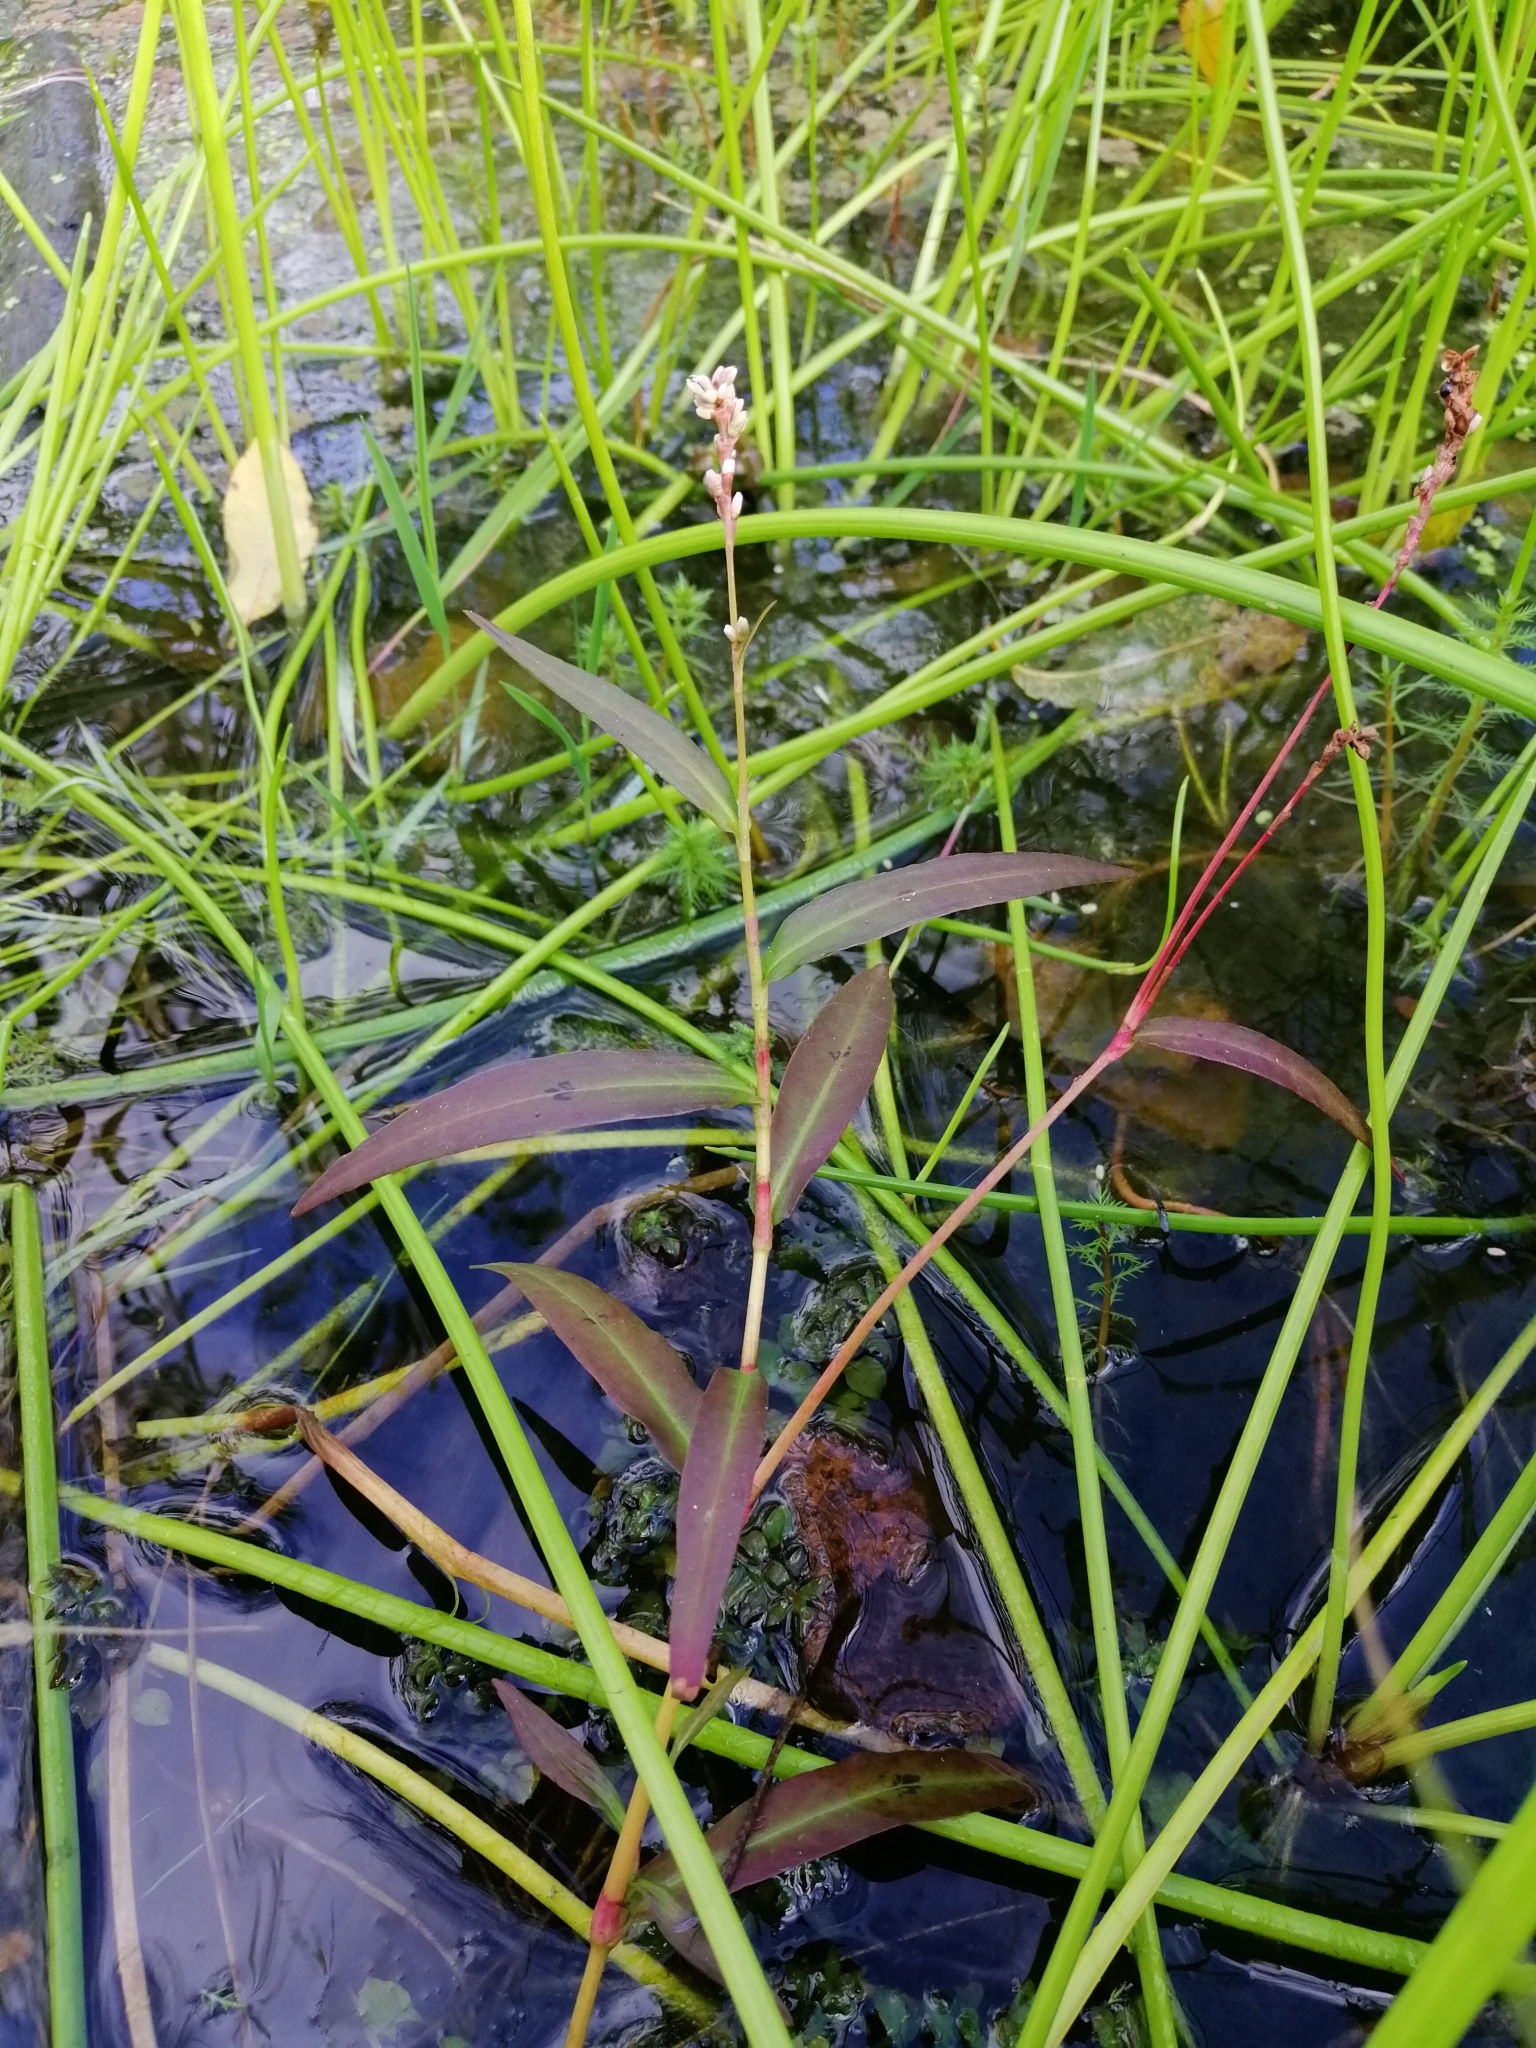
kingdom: Plantae
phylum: Tracheophyta
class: Magnoliopsida
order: Caryophyllales
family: Polygonaceae
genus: Persicaria
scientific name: Persicaria maculosa
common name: Redshank
